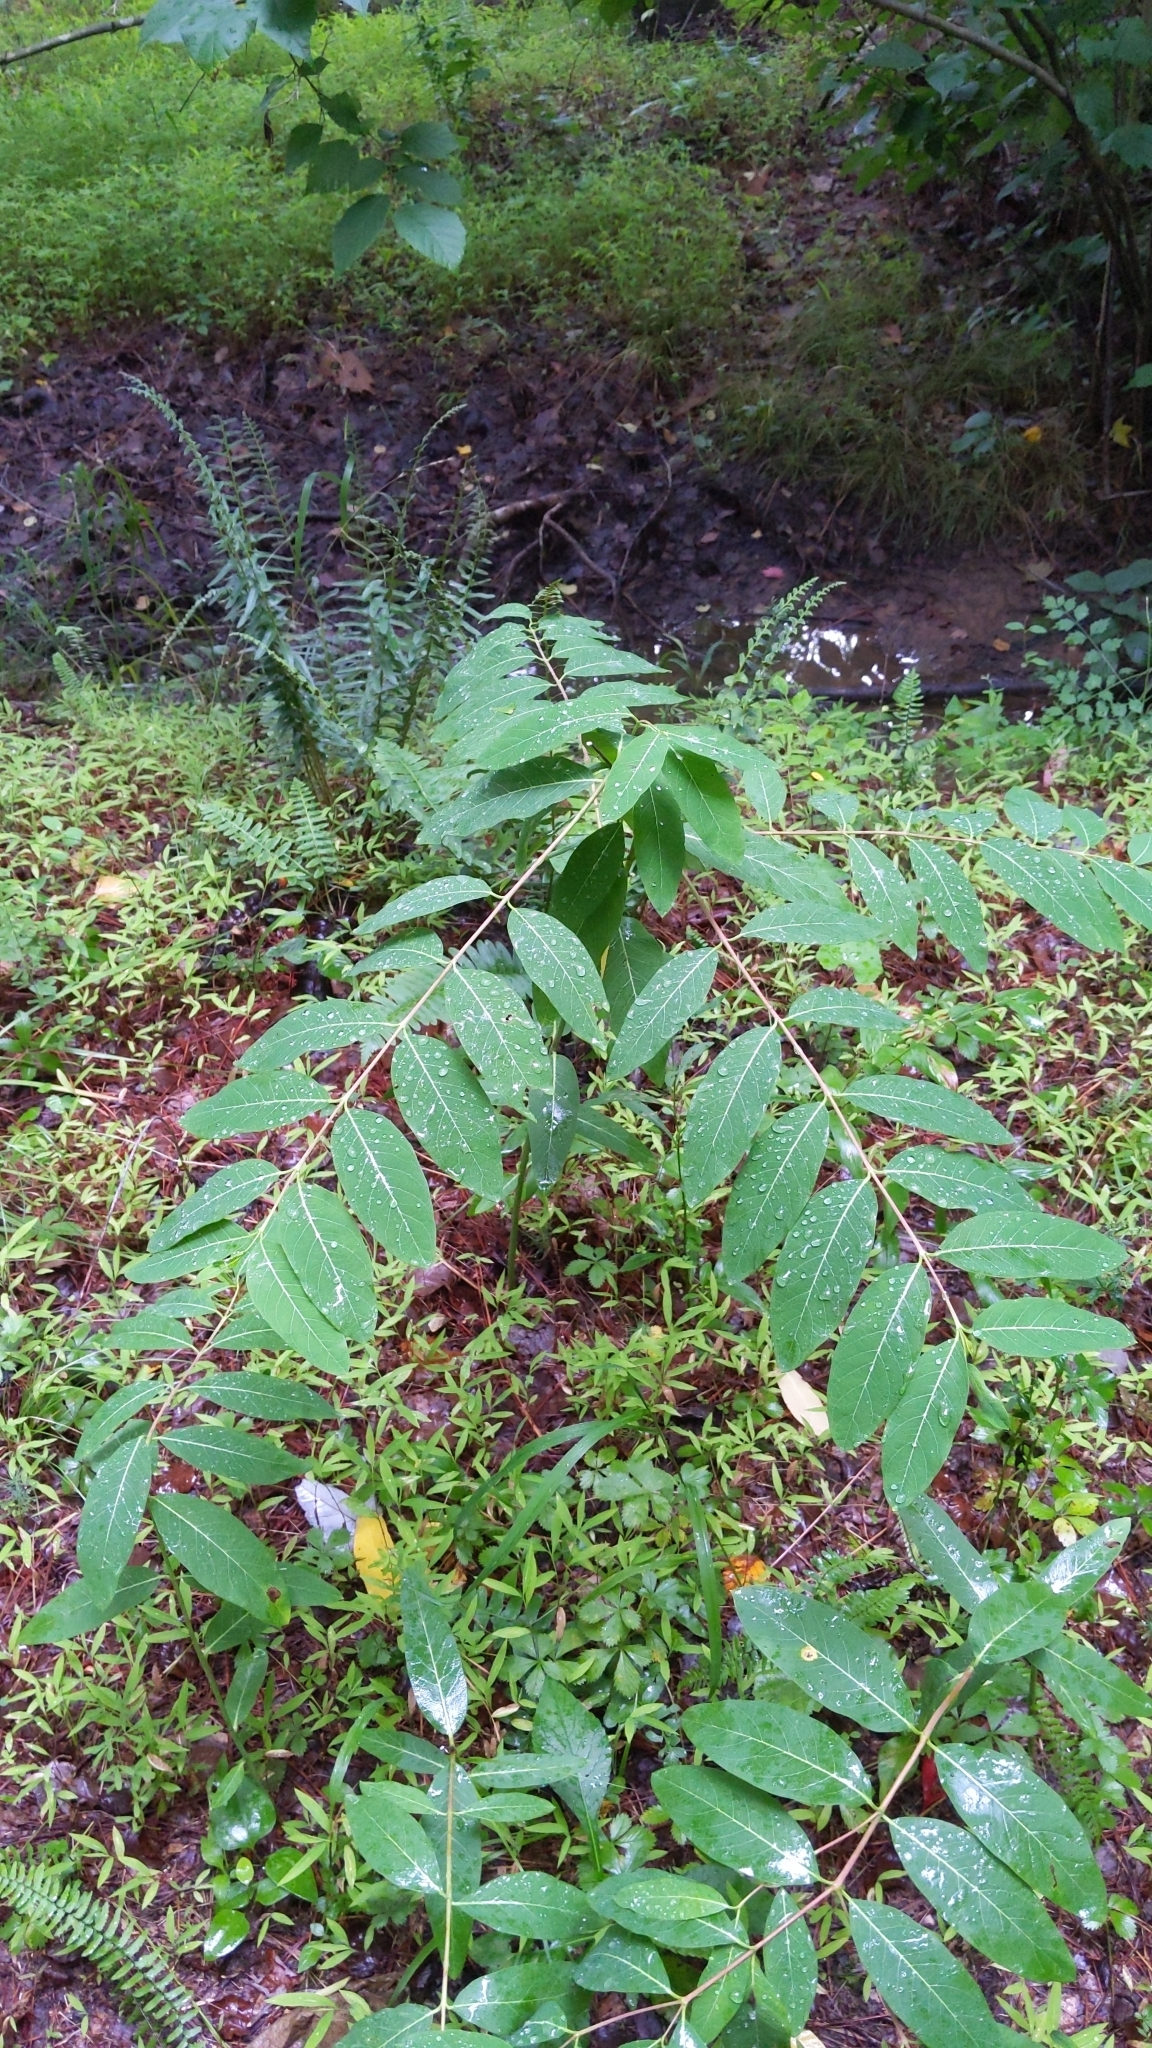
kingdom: Plantae
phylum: Tracheophyta
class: Magnoliopsida
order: Gentianales
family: Apocynaceae
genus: Apocynum
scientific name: Apocynum cannabinum
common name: Hemp dogbane
